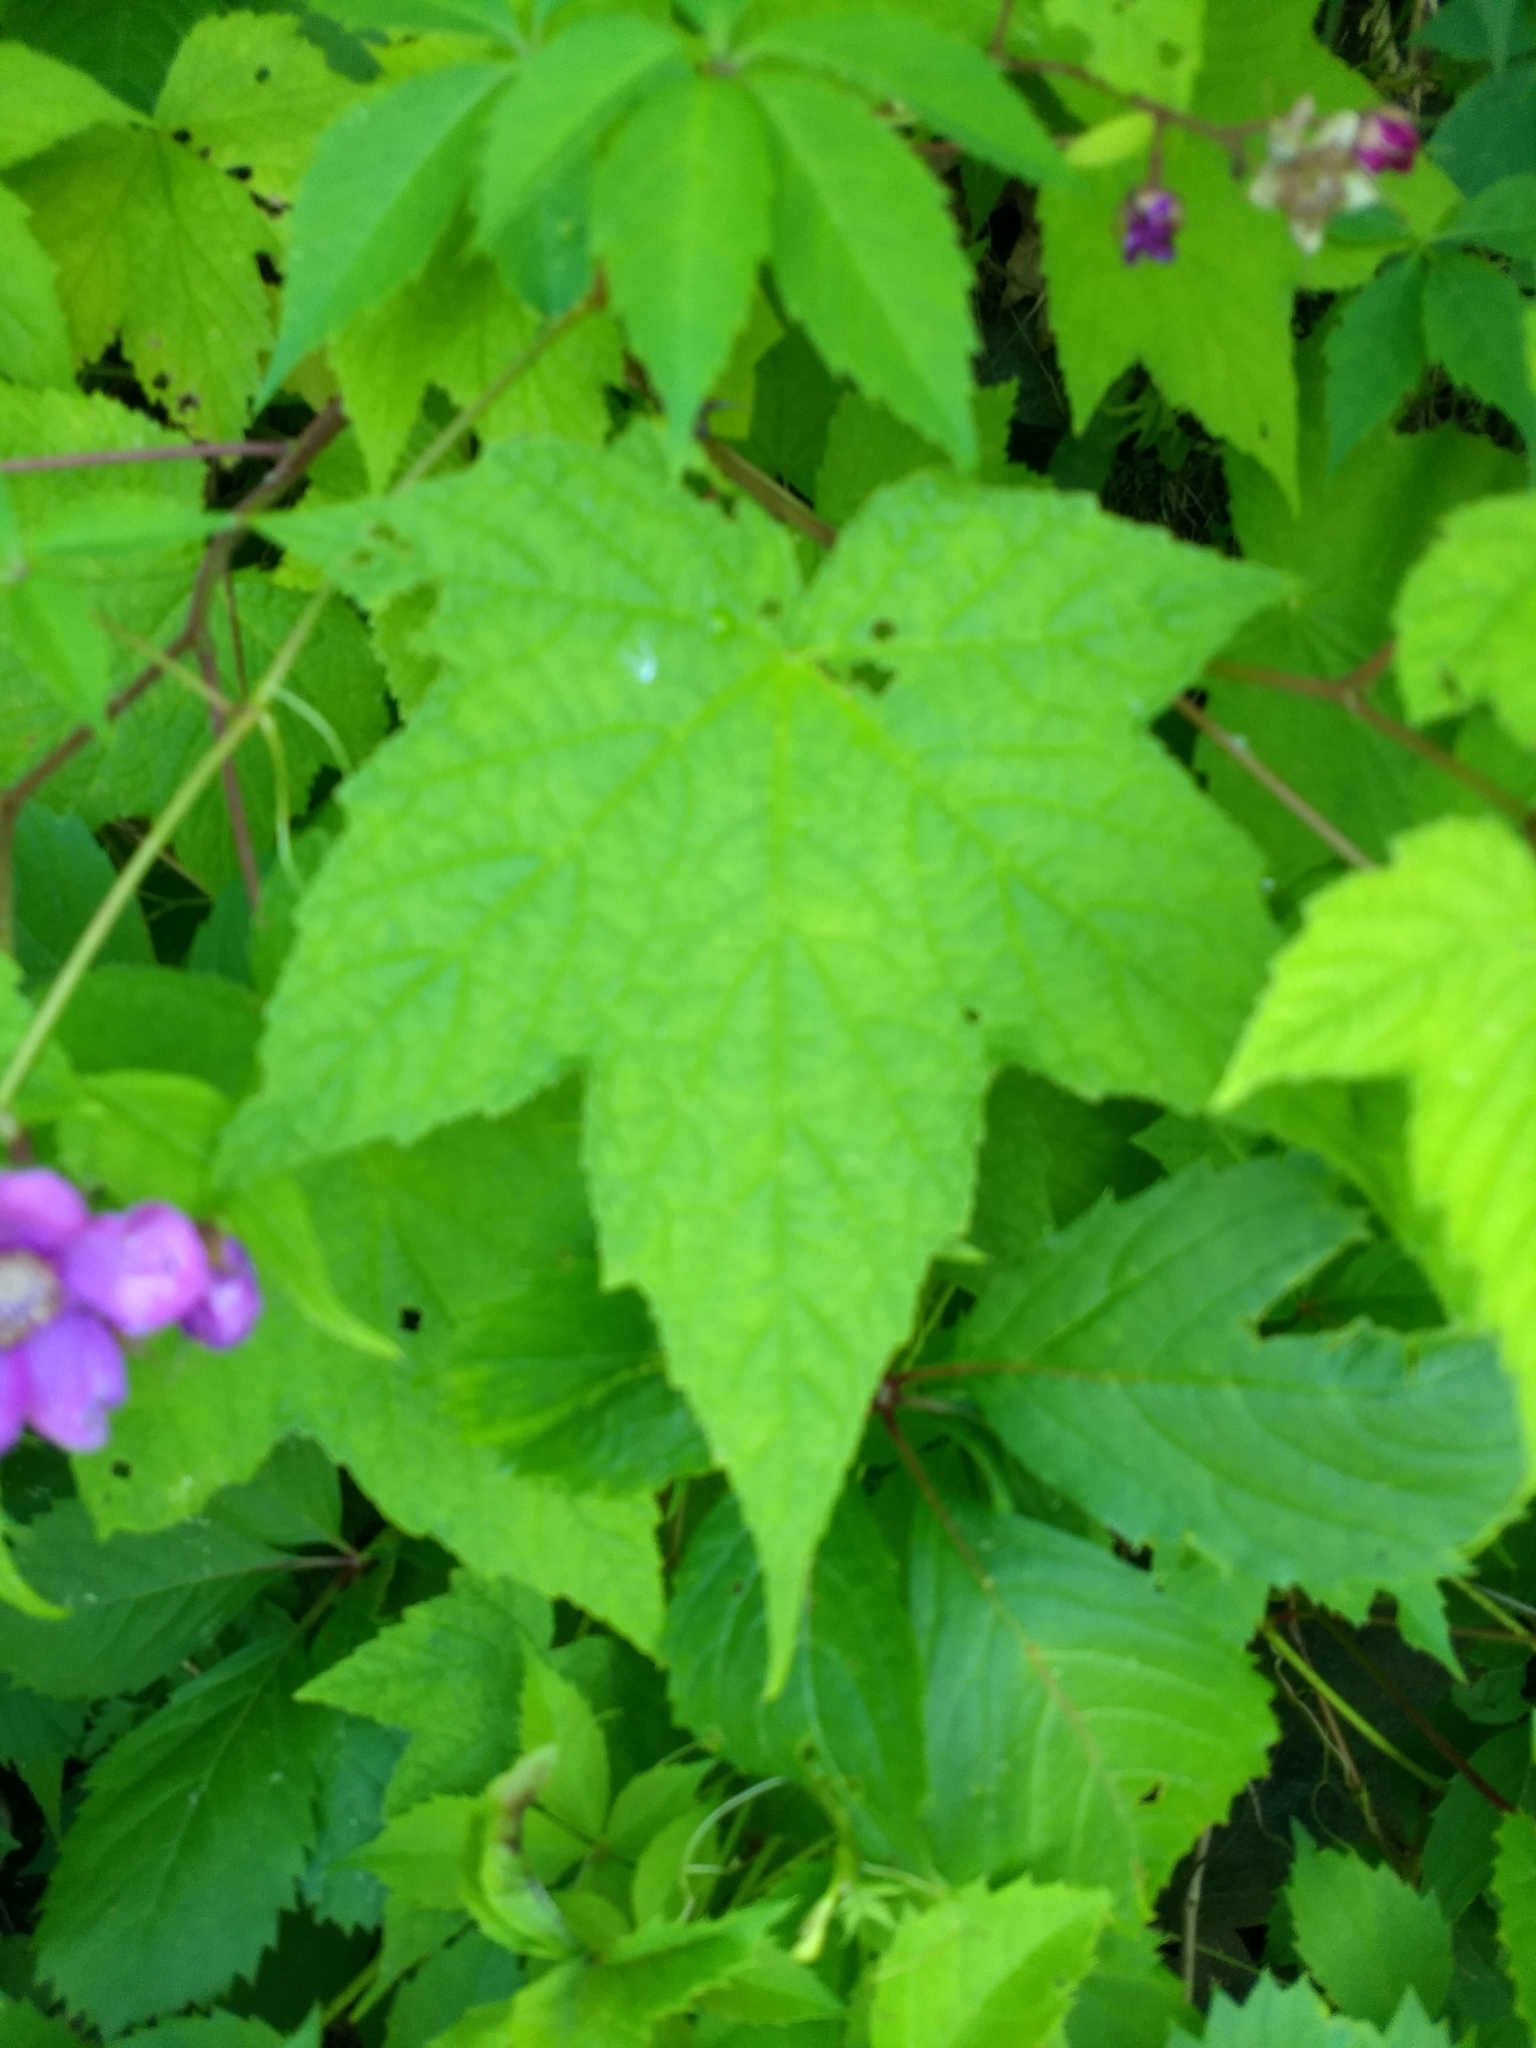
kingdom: Plantae
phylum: Tracheophyta
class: Magnoliopsida
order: Rosales
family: Rosaceae
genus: Rubus
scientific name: Rubus odoratus
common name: Purple-flowered raspberry
